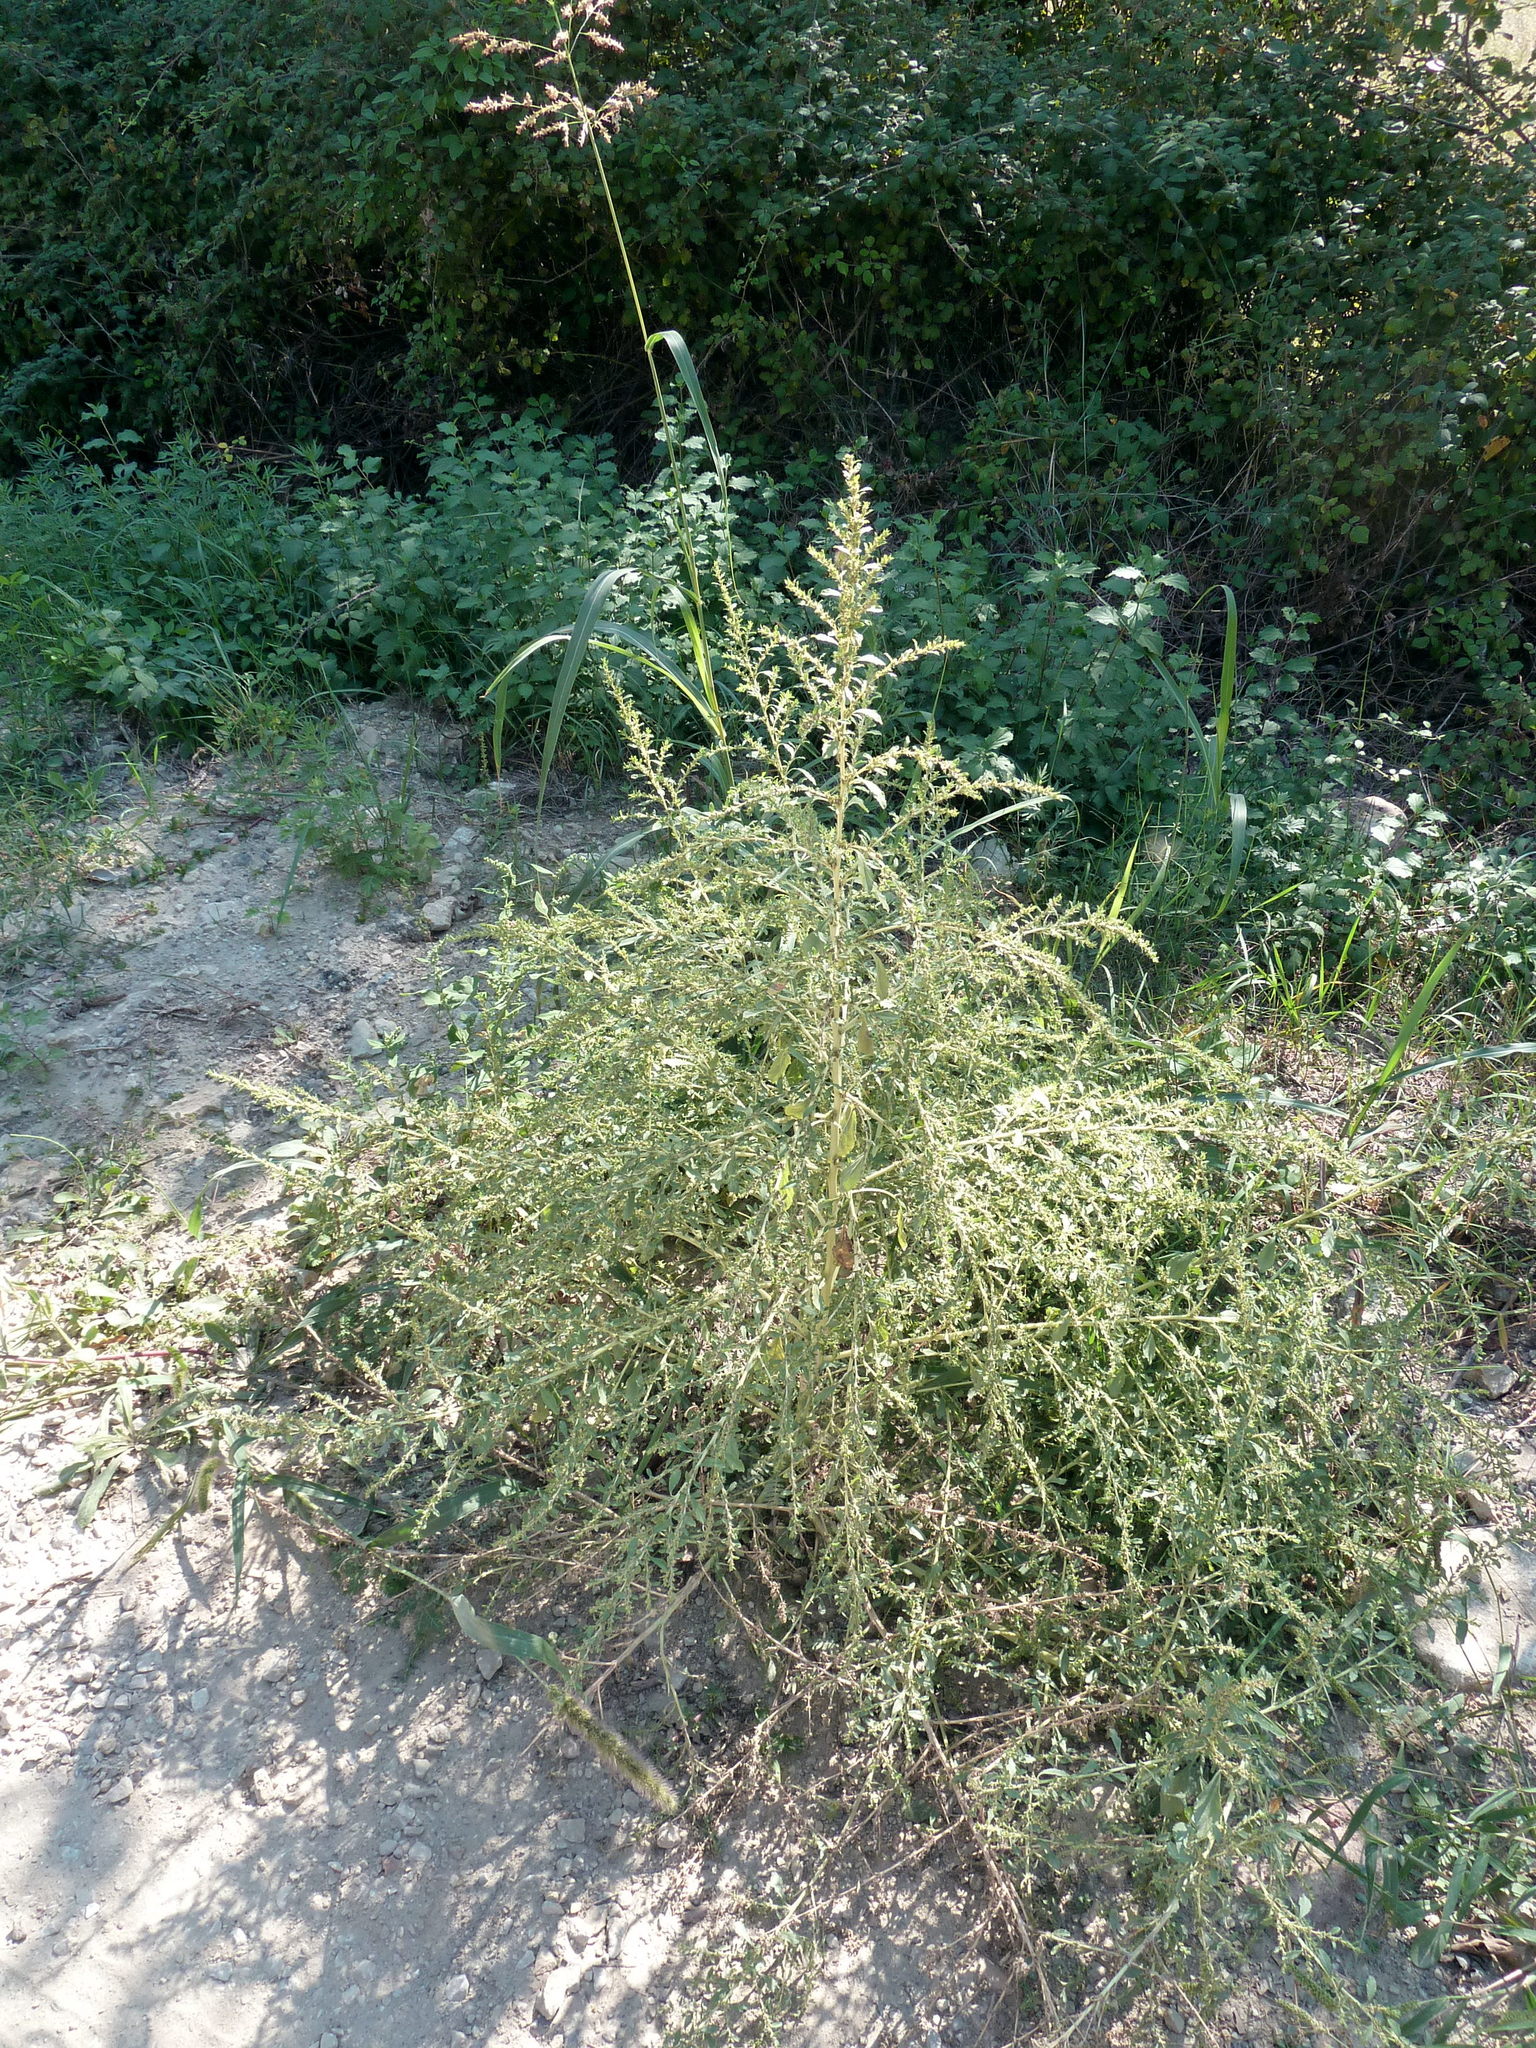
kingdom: Plantae
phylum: Tracheophyta
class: Magnoliopsida
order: Caryophyllales
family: Amaranthaceae
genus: Amaranthus
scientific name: Amaranthus albus
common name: White pigweed
